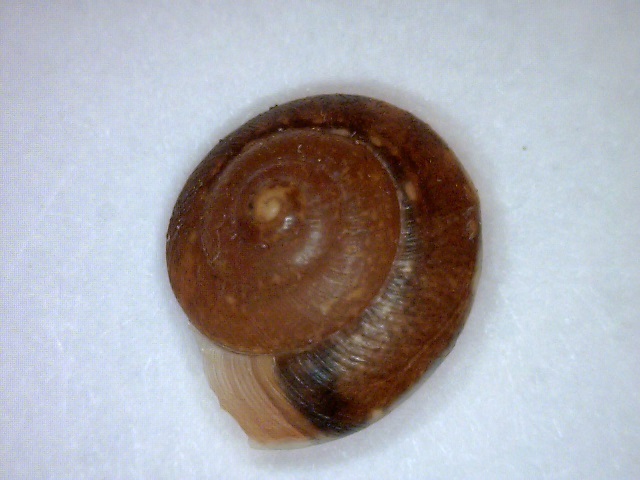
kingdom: Animalia
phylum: Mollusca
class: Gastropoda
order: Stylommatophora
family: Hygromiidae
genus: Hygromia
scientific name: Hygromia cinctella
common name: Girdled snail
